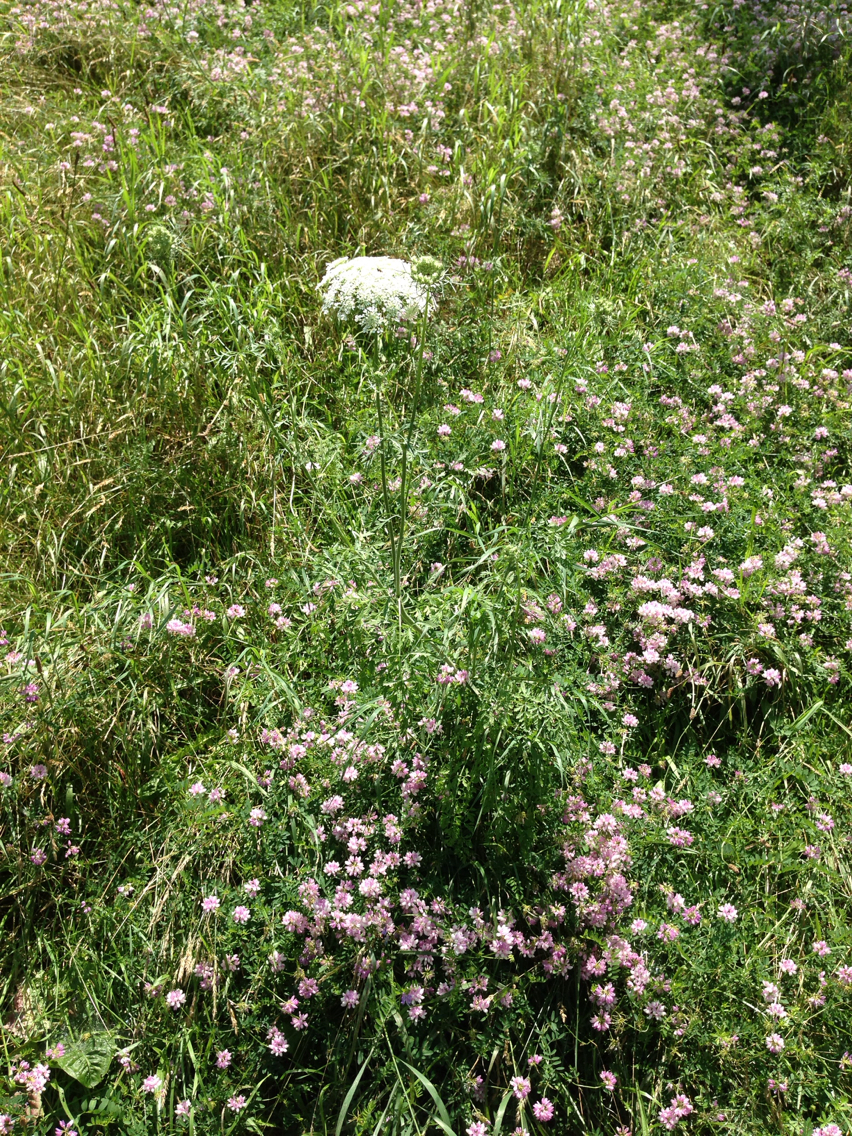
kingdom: Plantae
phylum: Tracheophyta
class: Magnoliopsida
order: Apiales
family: Apiaceae
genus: Daucus
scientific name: Daucus carota
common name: Wild carrot
